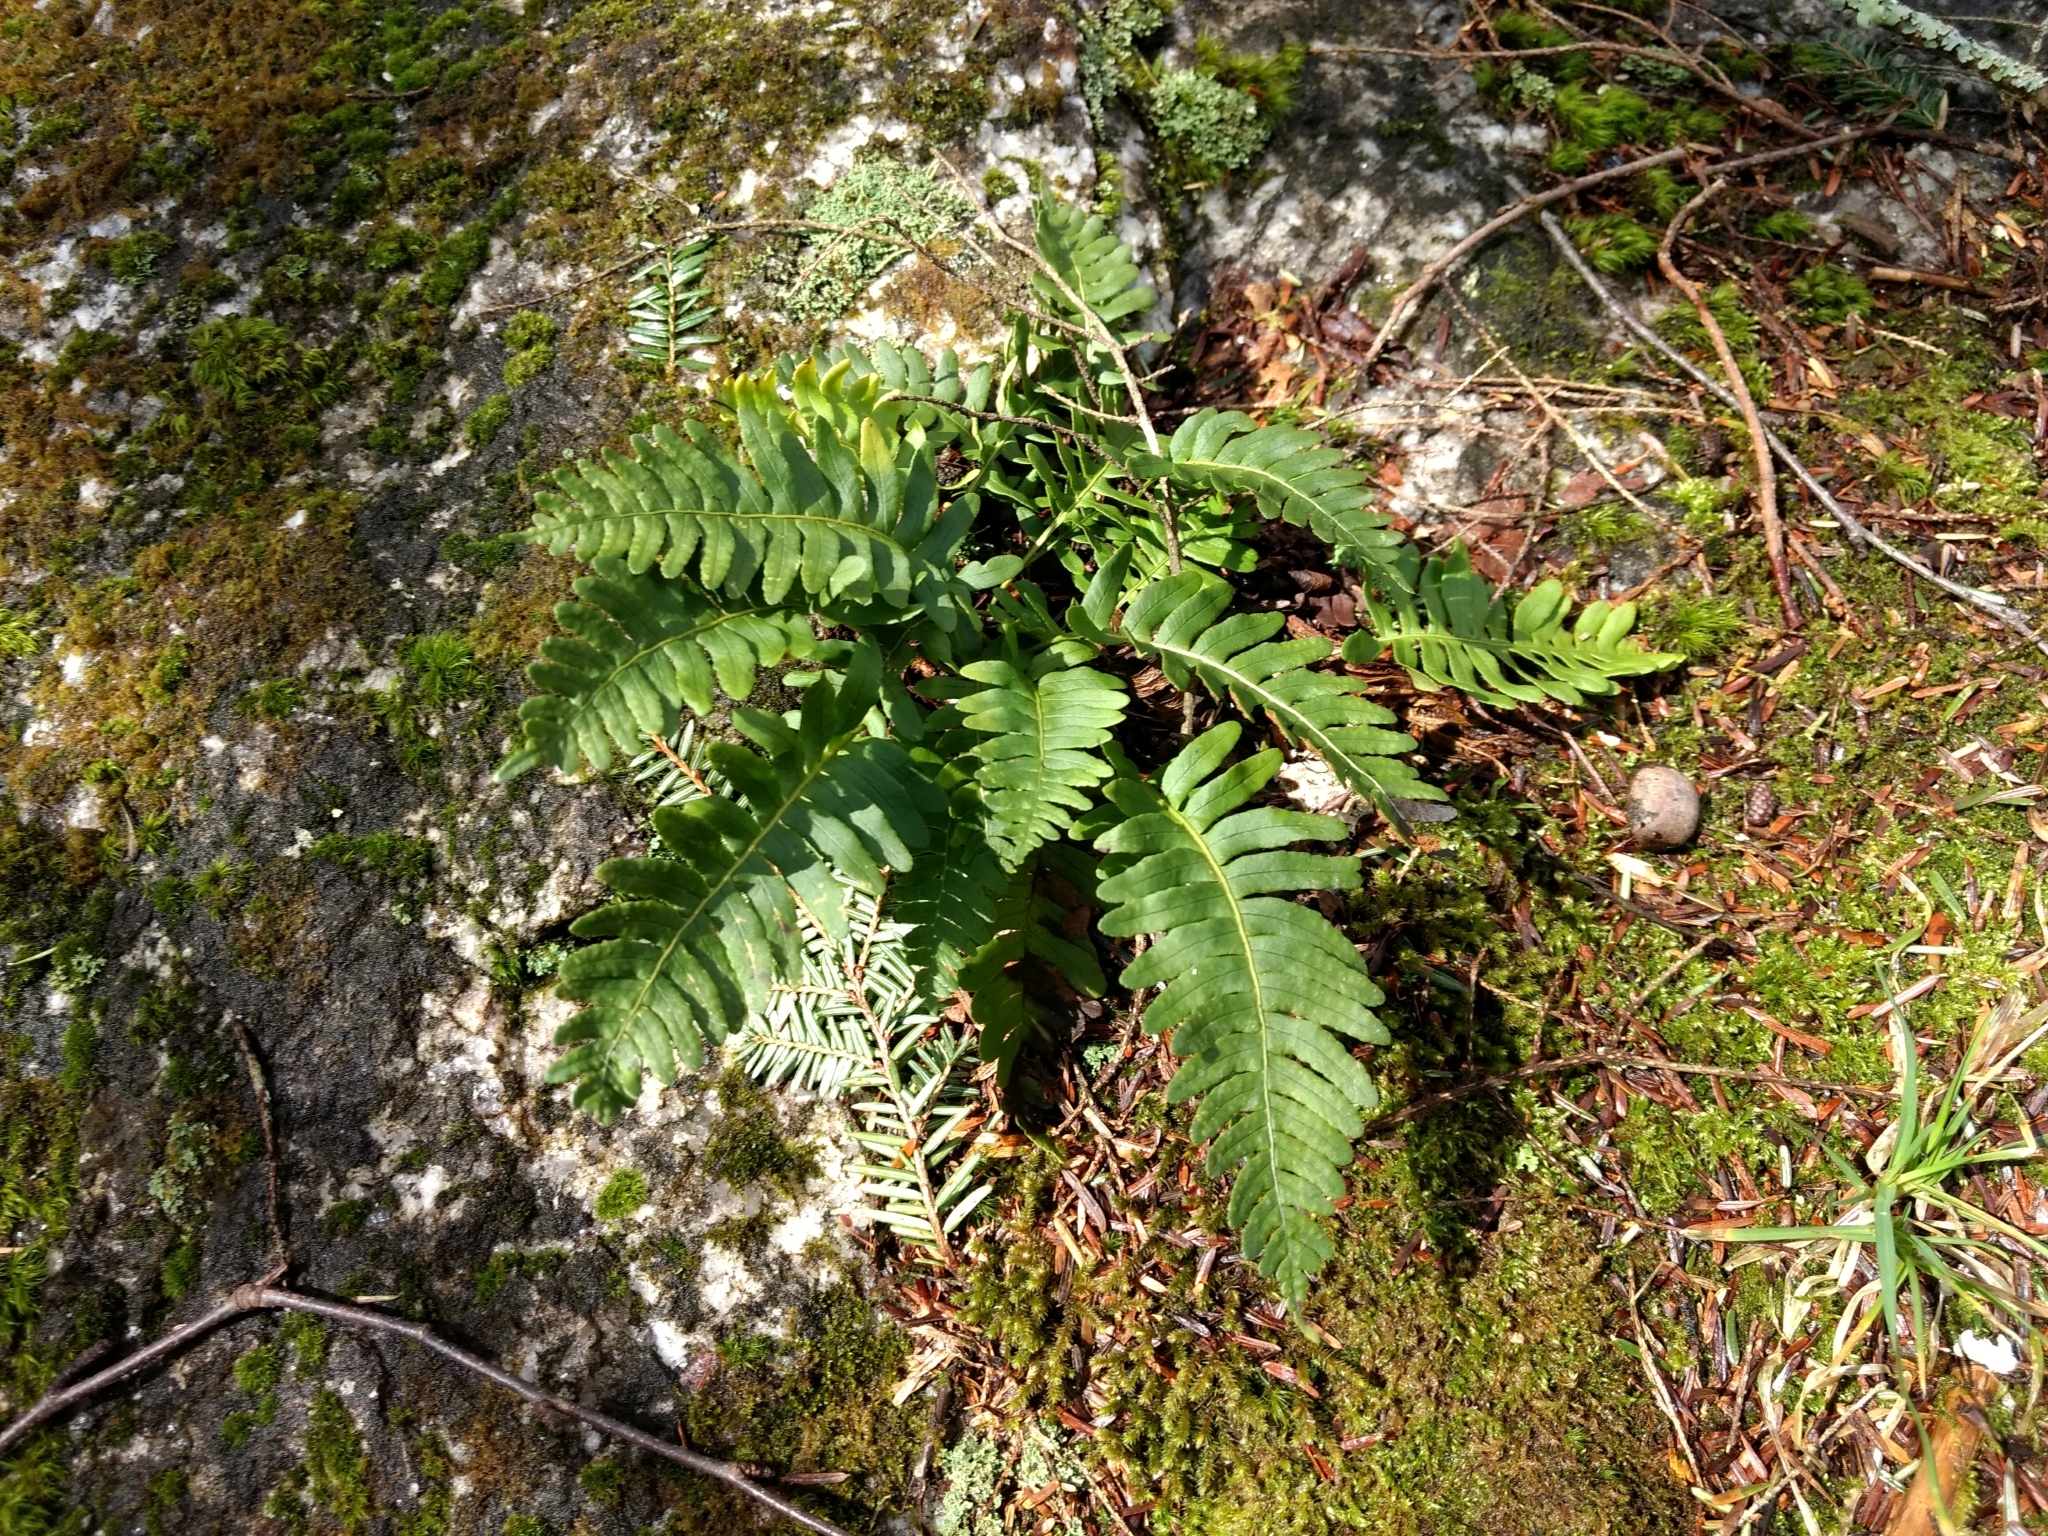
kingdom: Plantae
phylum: Tracheophyta
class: Polypodiopsida
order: Polypodiales
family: Polypodiaceae
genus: Polypodium
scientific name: Polypodium virginianum
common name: American wall fern
